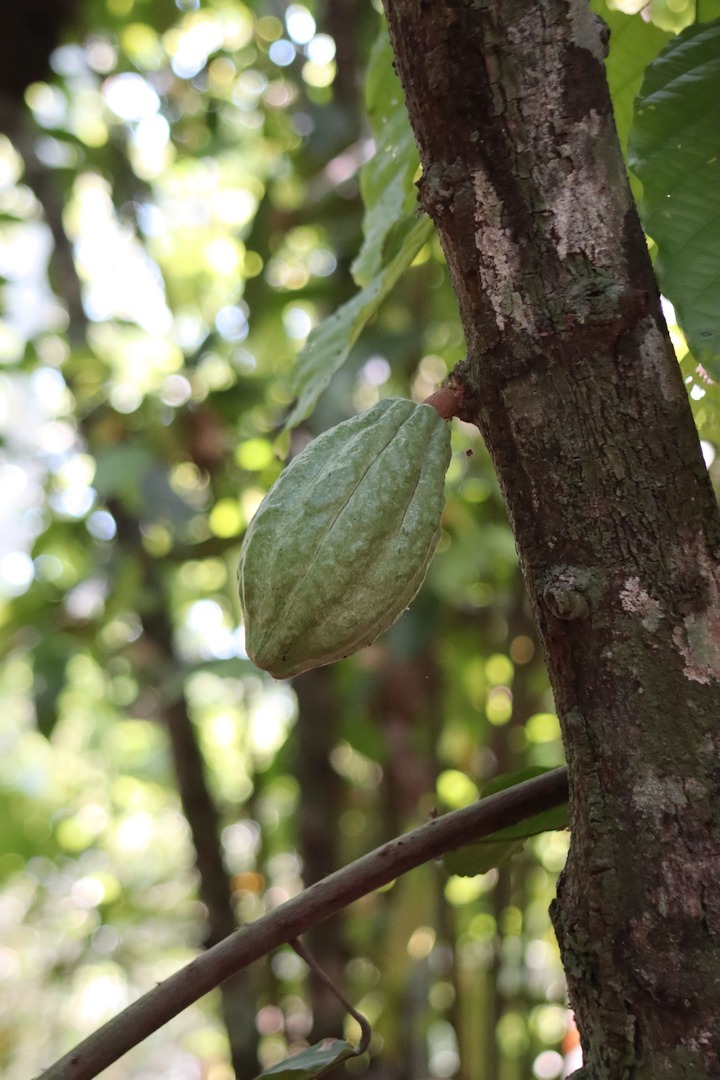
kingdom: Plantae
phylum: Tracheophyta
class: Magnoliopsida
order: Malvales
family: Malvaceae
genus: Theobroma
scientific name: Theobroma cacao
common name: Cocoa
